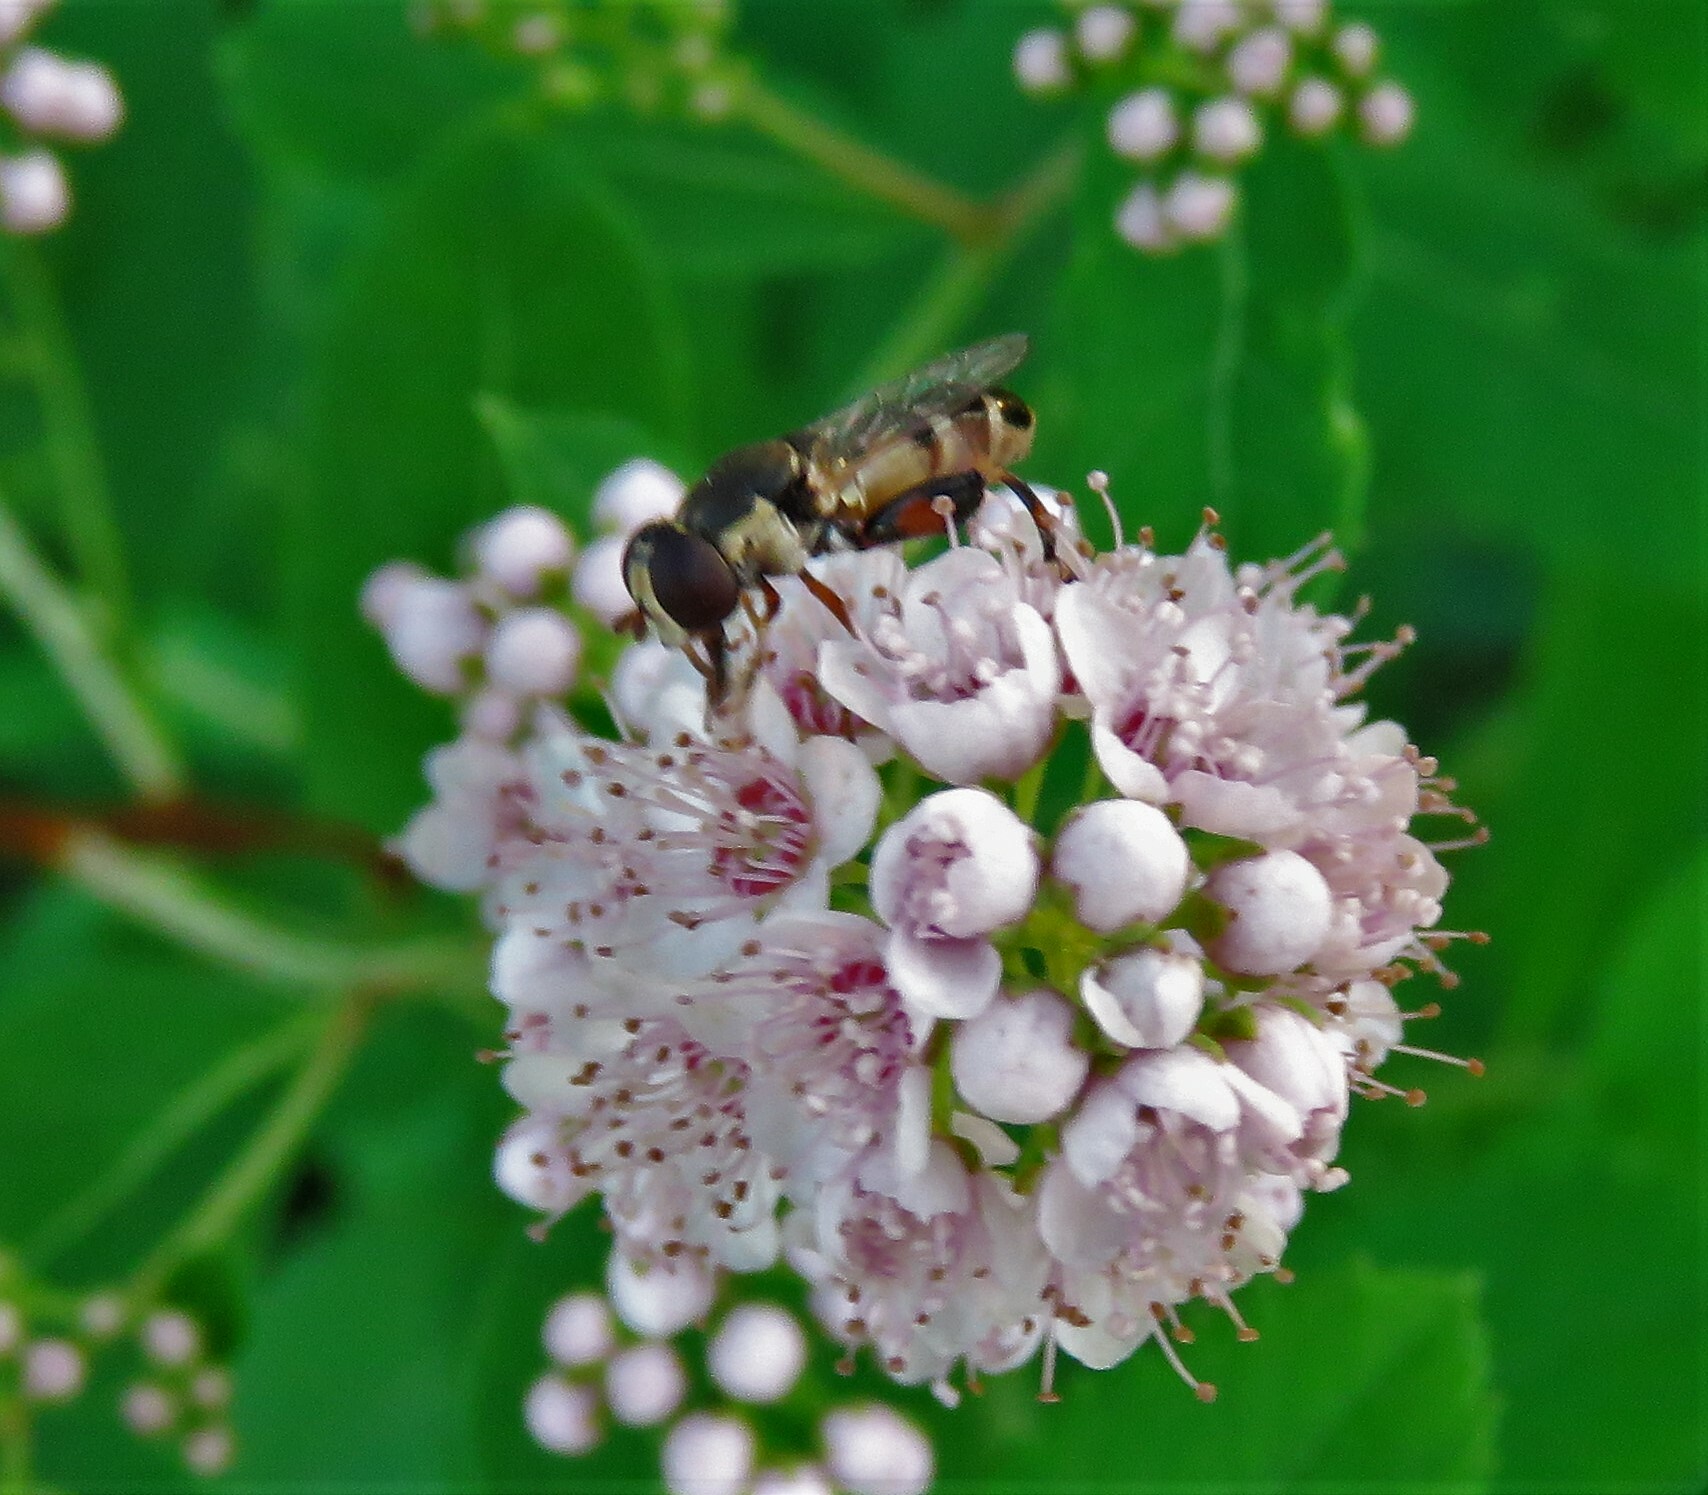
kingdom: Animalia
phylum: Arthropoda
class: Insecta
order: Diptera
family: Syrphidae
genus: Syritta
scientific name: Syritta pipiens
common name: Hover fly
